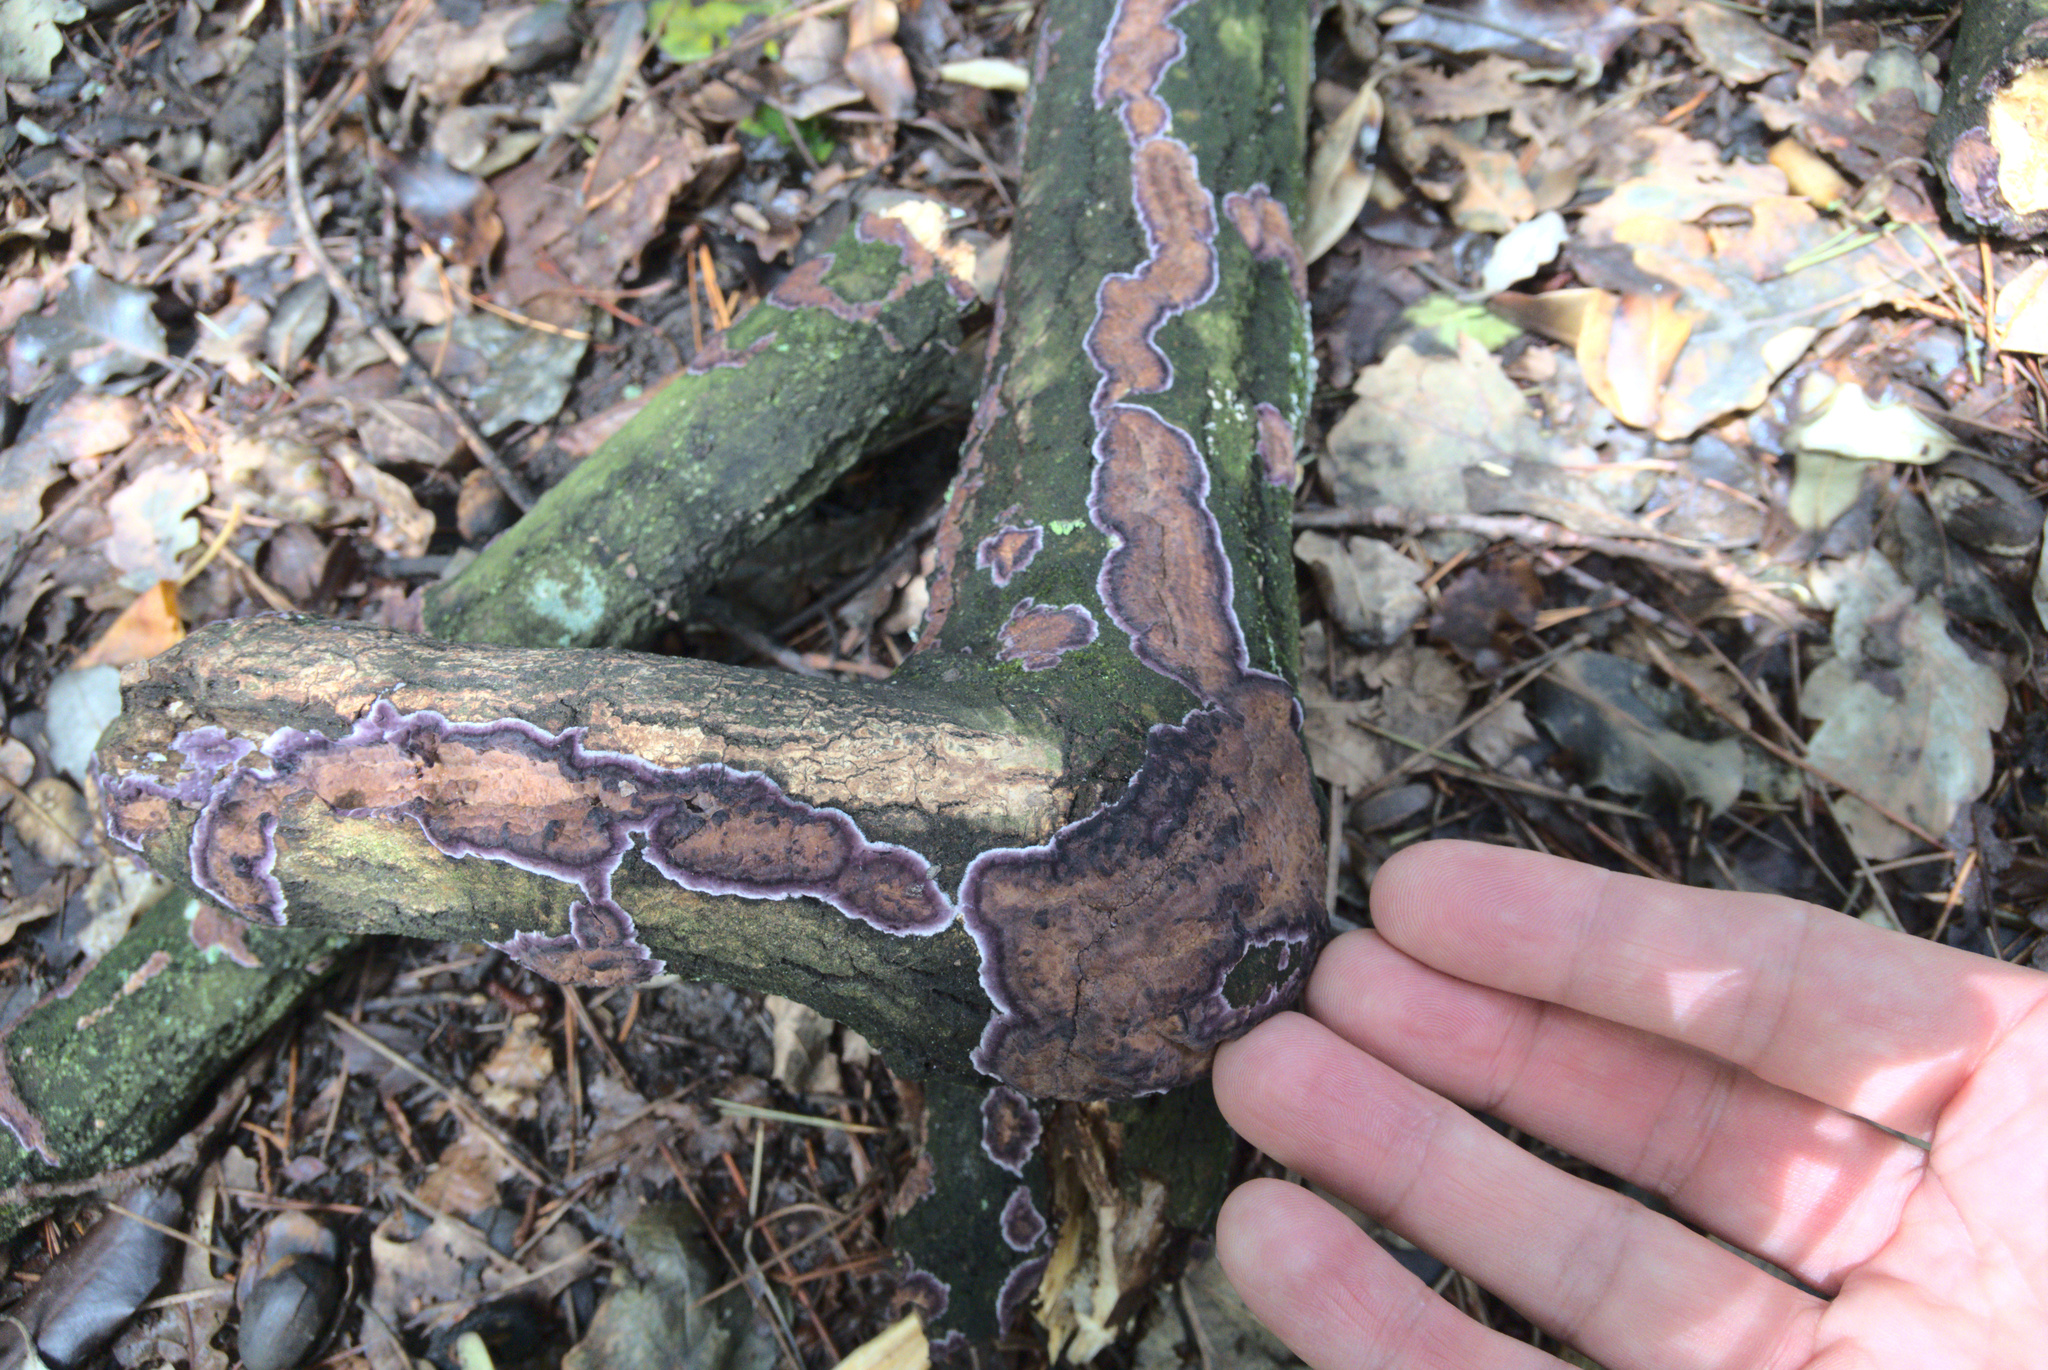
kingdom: Fungi
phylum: Basidiomycota
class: Agaricomycetes
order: Agaricales
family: Cyphellaceae
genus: Chondrostereum
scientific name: Chondrostereum purpureum
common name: Silver leaf disease
